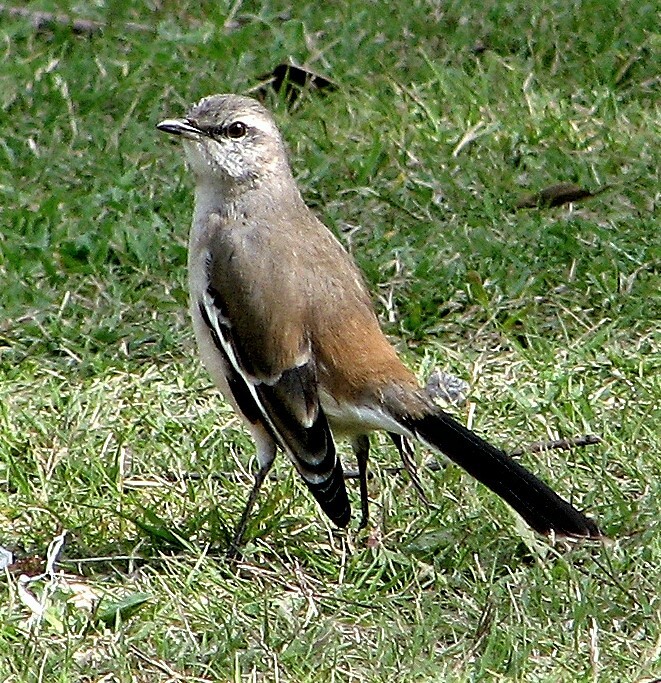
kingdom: Animalia
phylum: Chordata
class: Aves
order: Passeriformes
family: Mimidae
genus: Mimus
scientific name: Mimus triurus
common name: White-banded mockingbird
